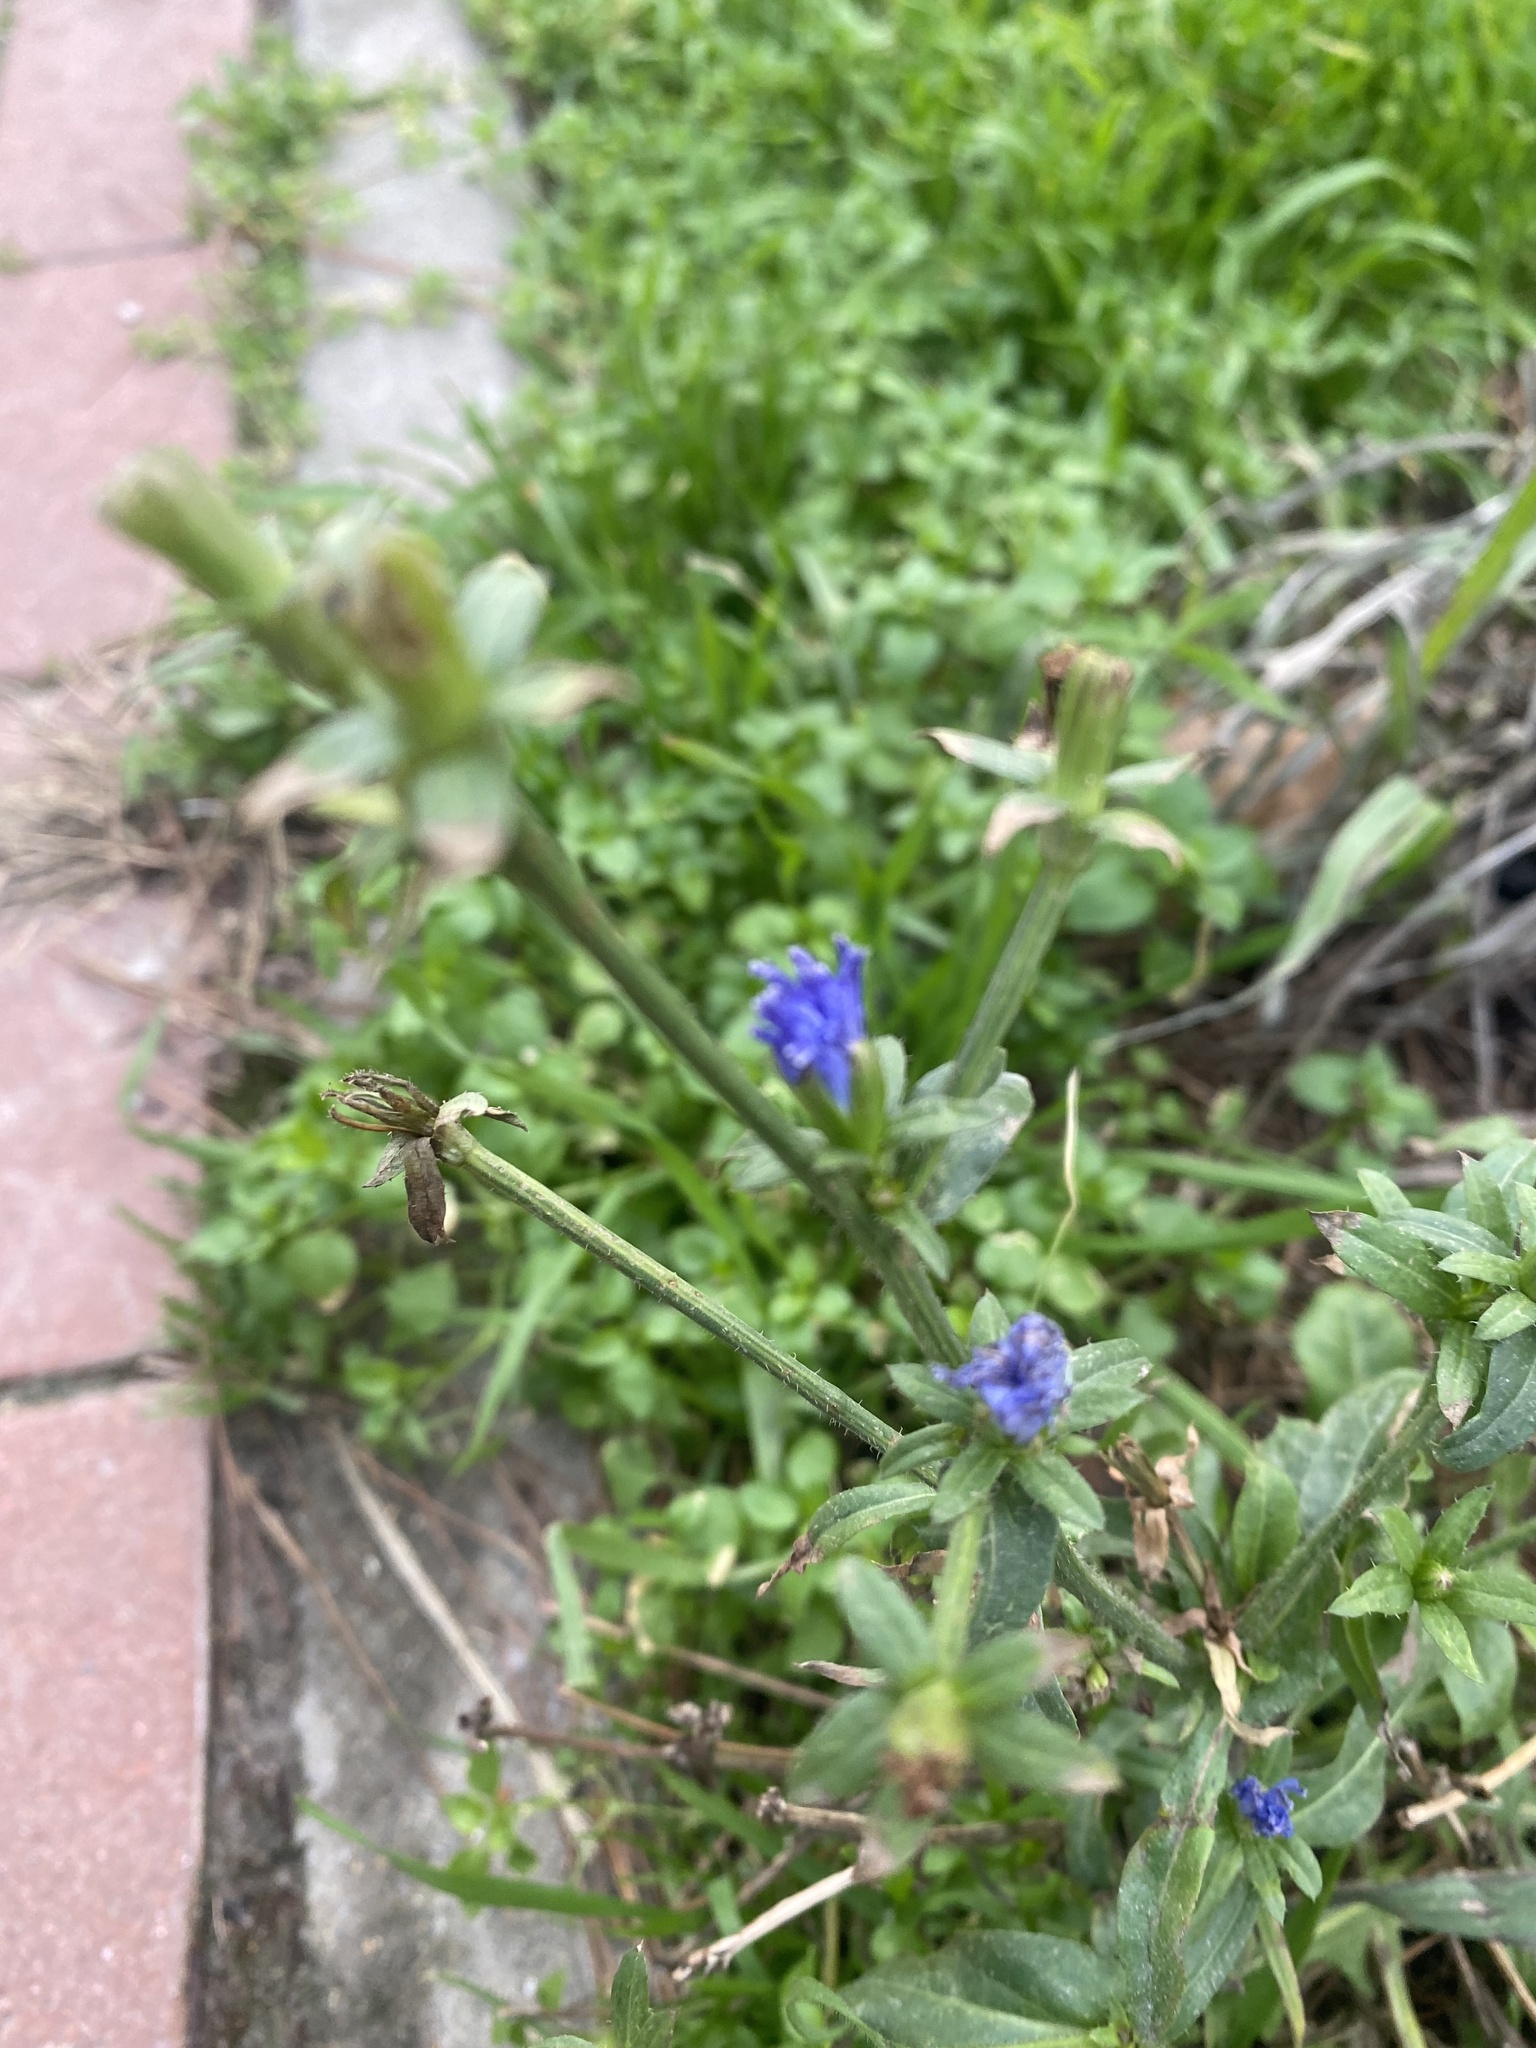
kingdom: Plantae
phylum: Tracheophyta
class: Magnoliopsida
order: Asterales
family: Asteraceae
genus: Cichorium
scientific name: Cichorium intybus
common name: Chicory
